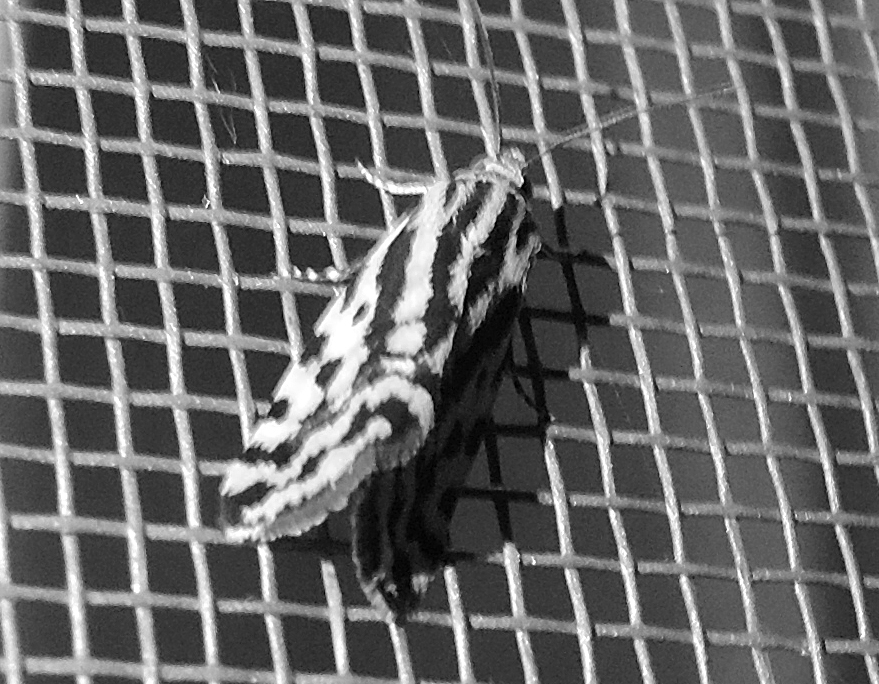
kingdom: Animalia
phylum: Arthropoda
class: Insecta
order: Lepidoptera
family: Noctuidae
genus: Acontia
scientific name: Acontia trabealis
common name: Spotted sulphur
